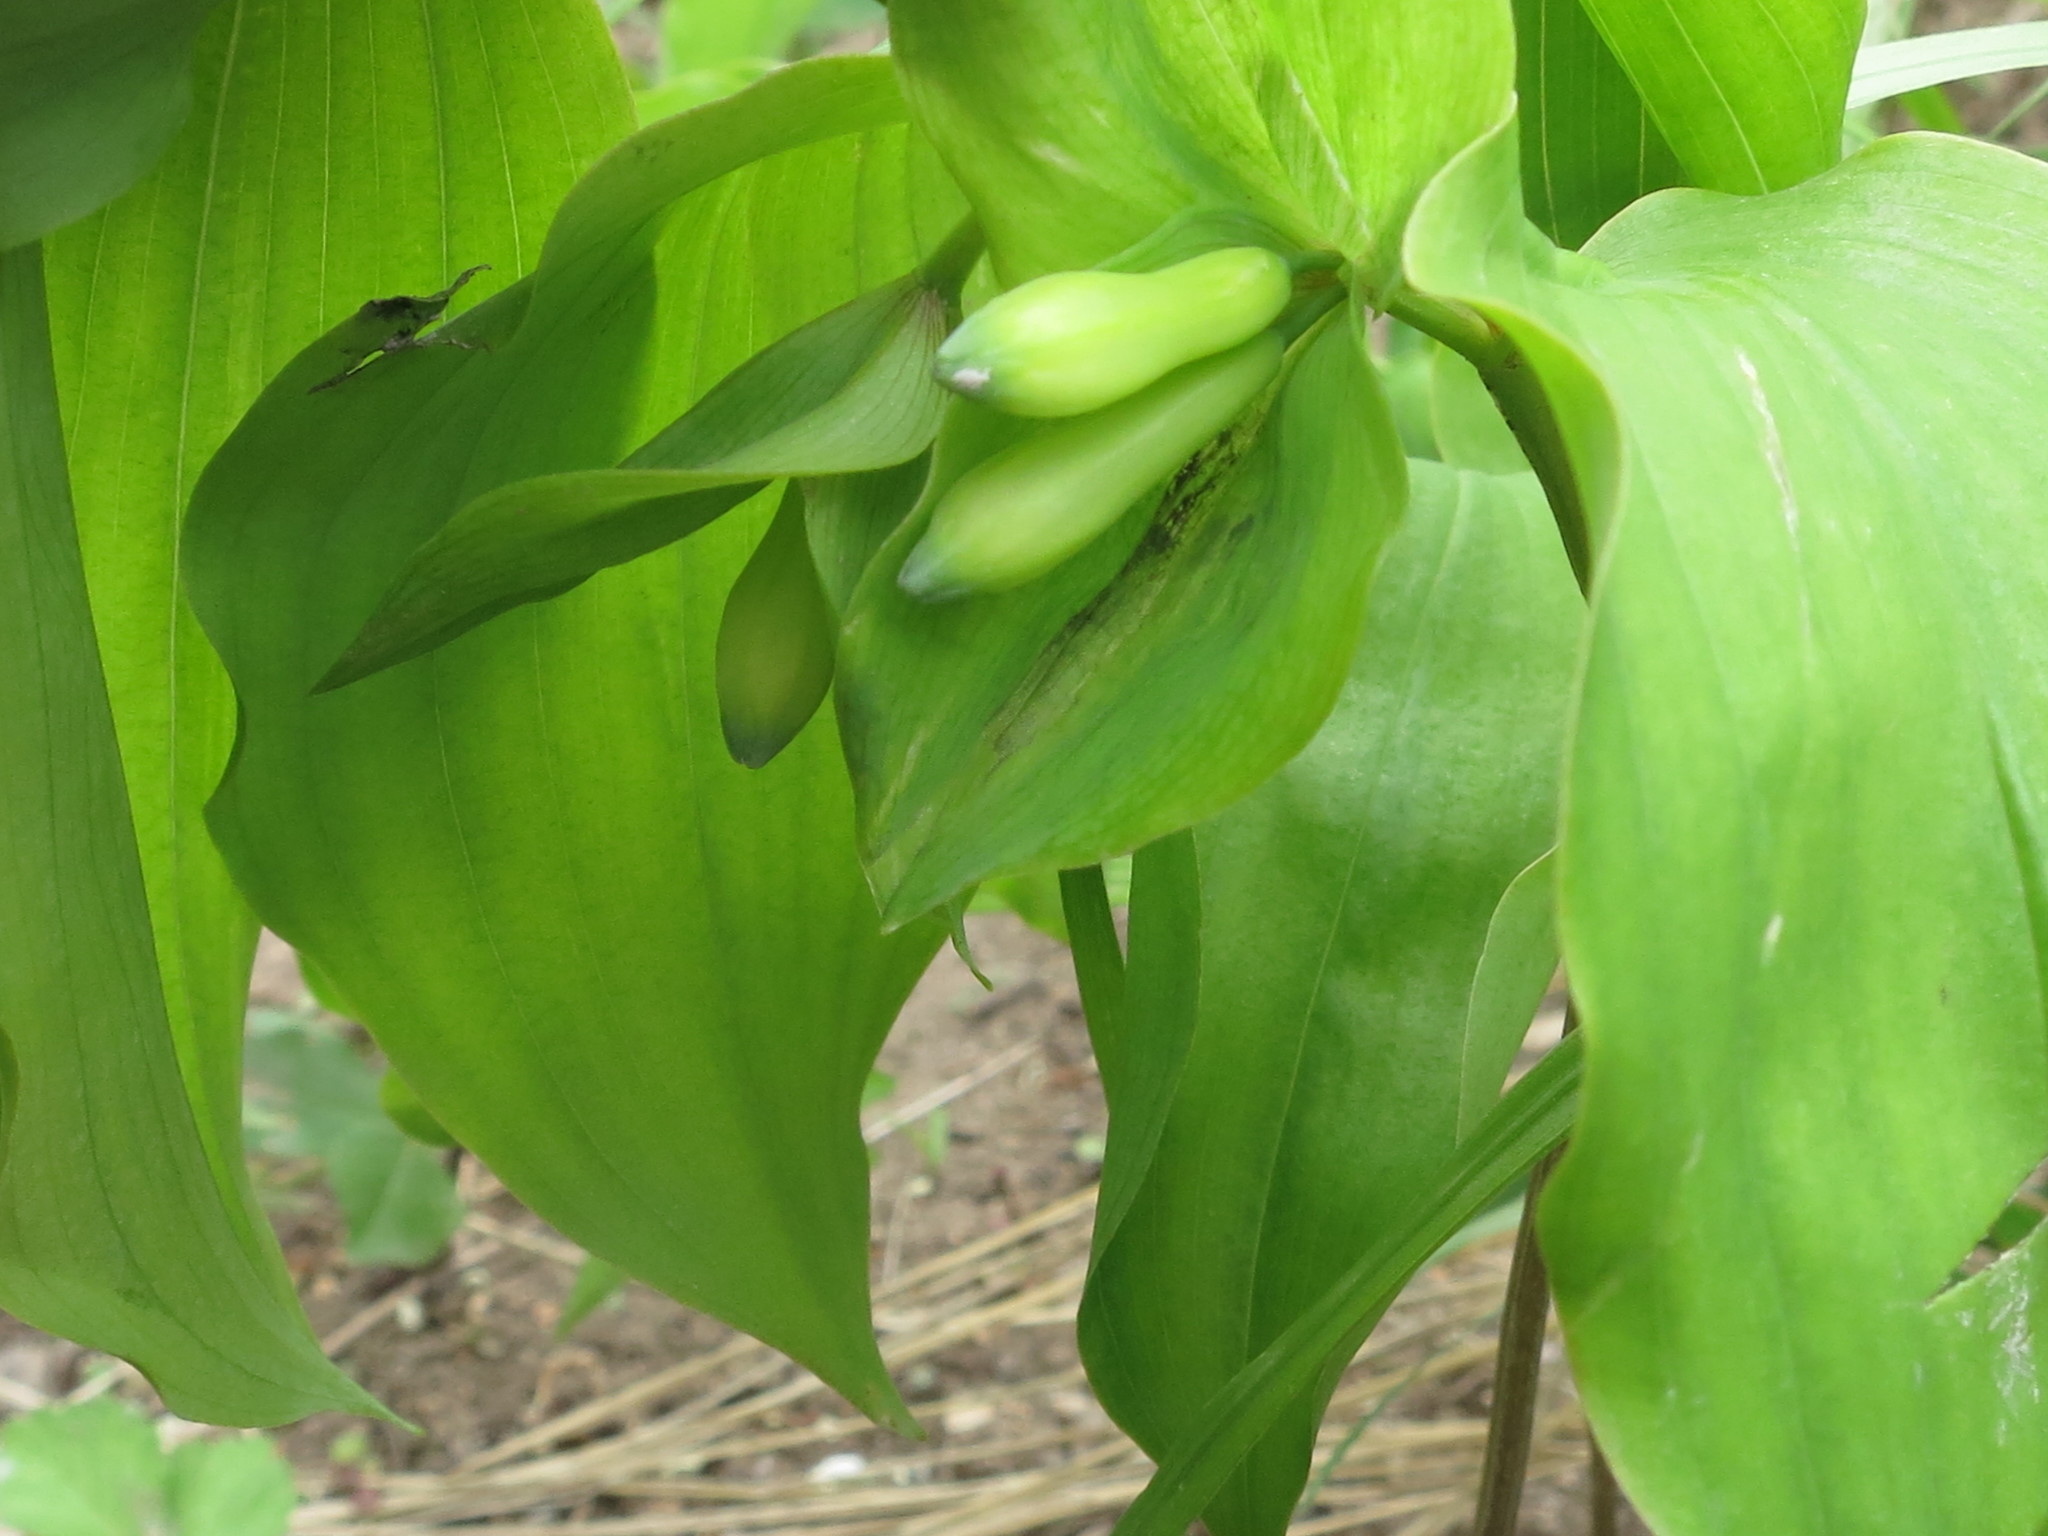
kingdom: Plantae
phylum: Tracheophyta
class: Liliopsida
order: Asparagales
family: Asparagaceae
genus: Polygonatum
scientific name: Polygonatum involucratum
